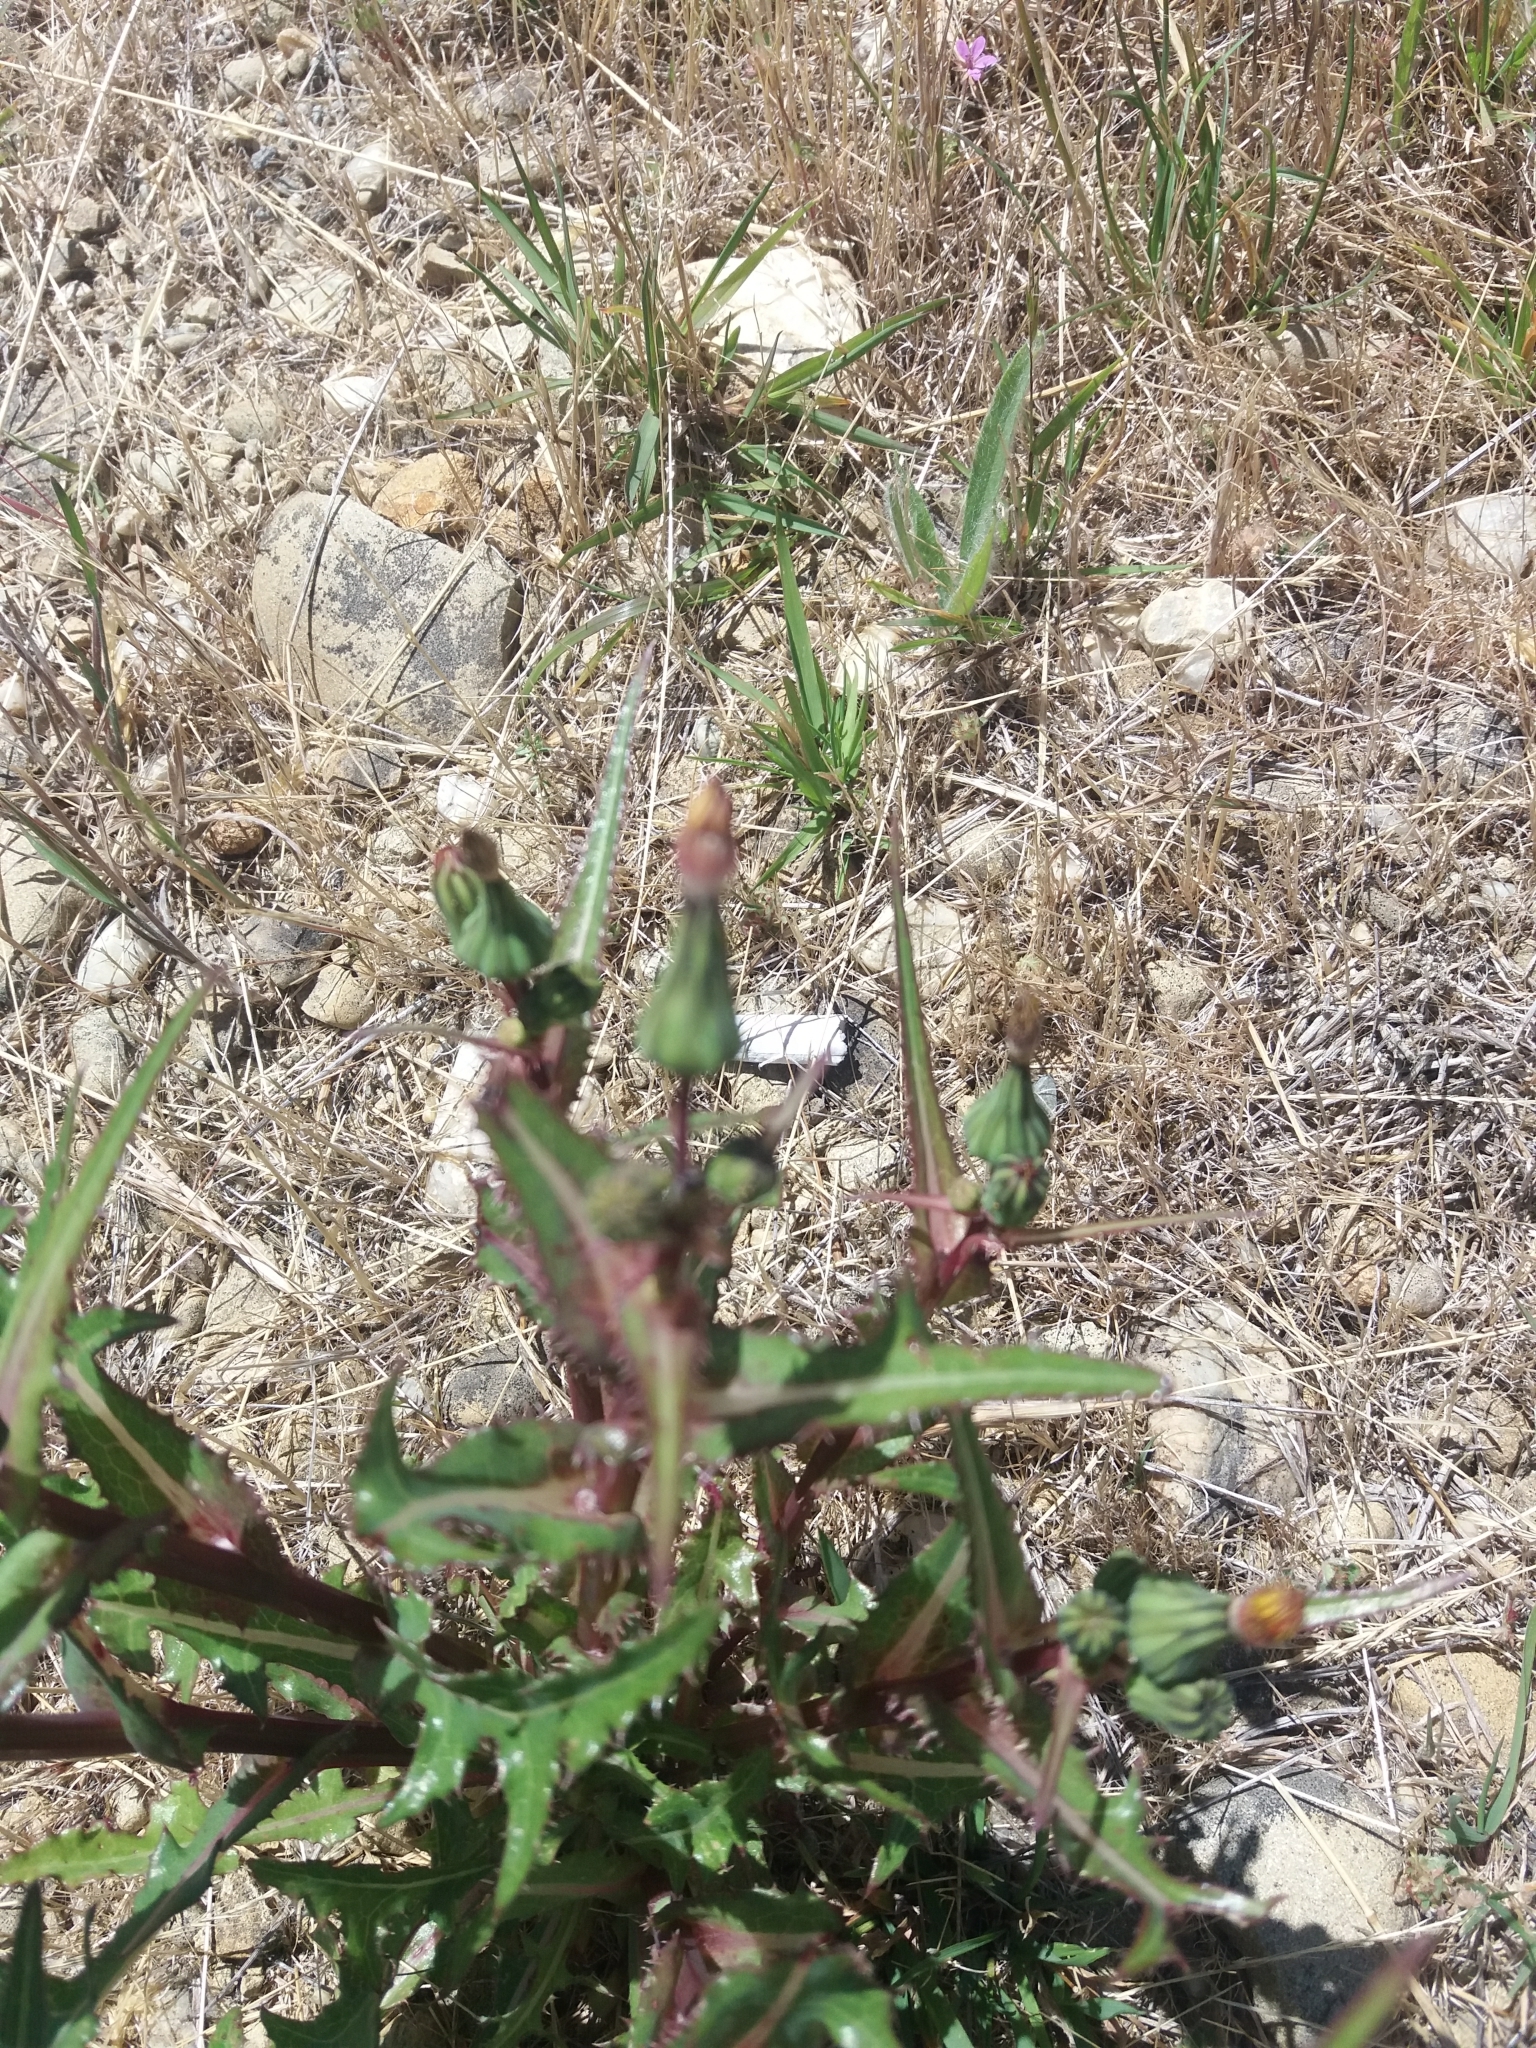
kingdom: Plantae
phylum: Tracheophyta
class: Magnoliopsida
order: Asterales
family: Asteraceae
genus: Sonchus
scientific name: Sonchus oleraceus
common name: Common sowthistle
